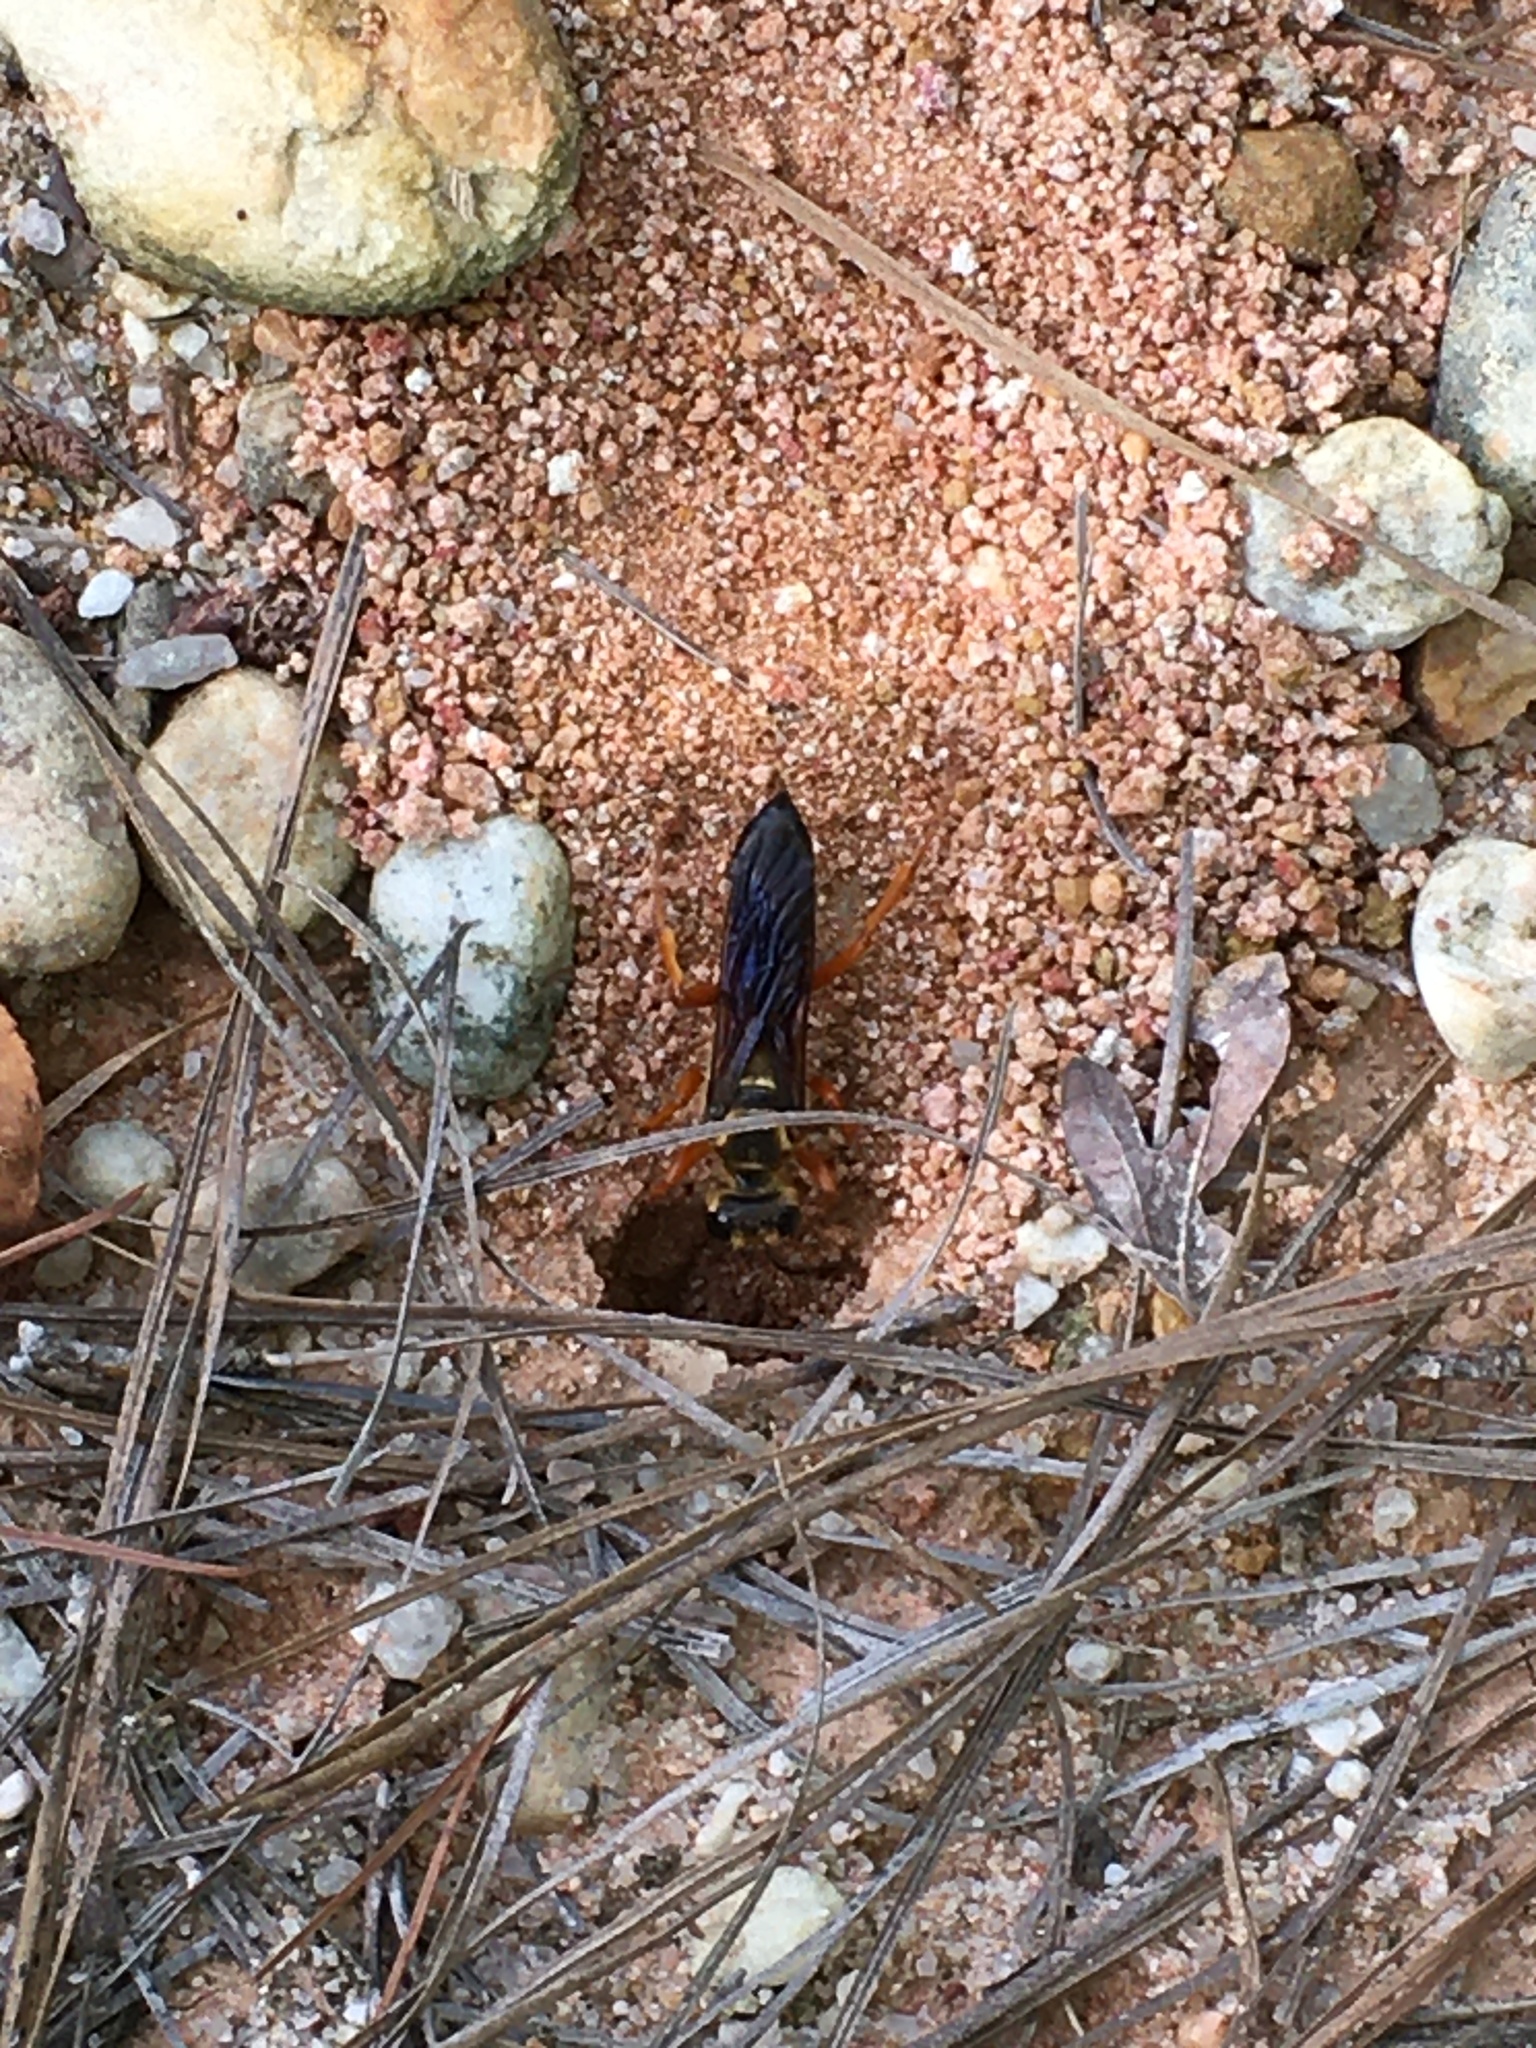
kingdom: Animalia
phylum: Arthropoda
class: Insecta
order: Hymenoptera
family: Sphecidae
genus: Sphex
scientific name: Sphex ichneumoneus
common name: Great golden digger wasp
